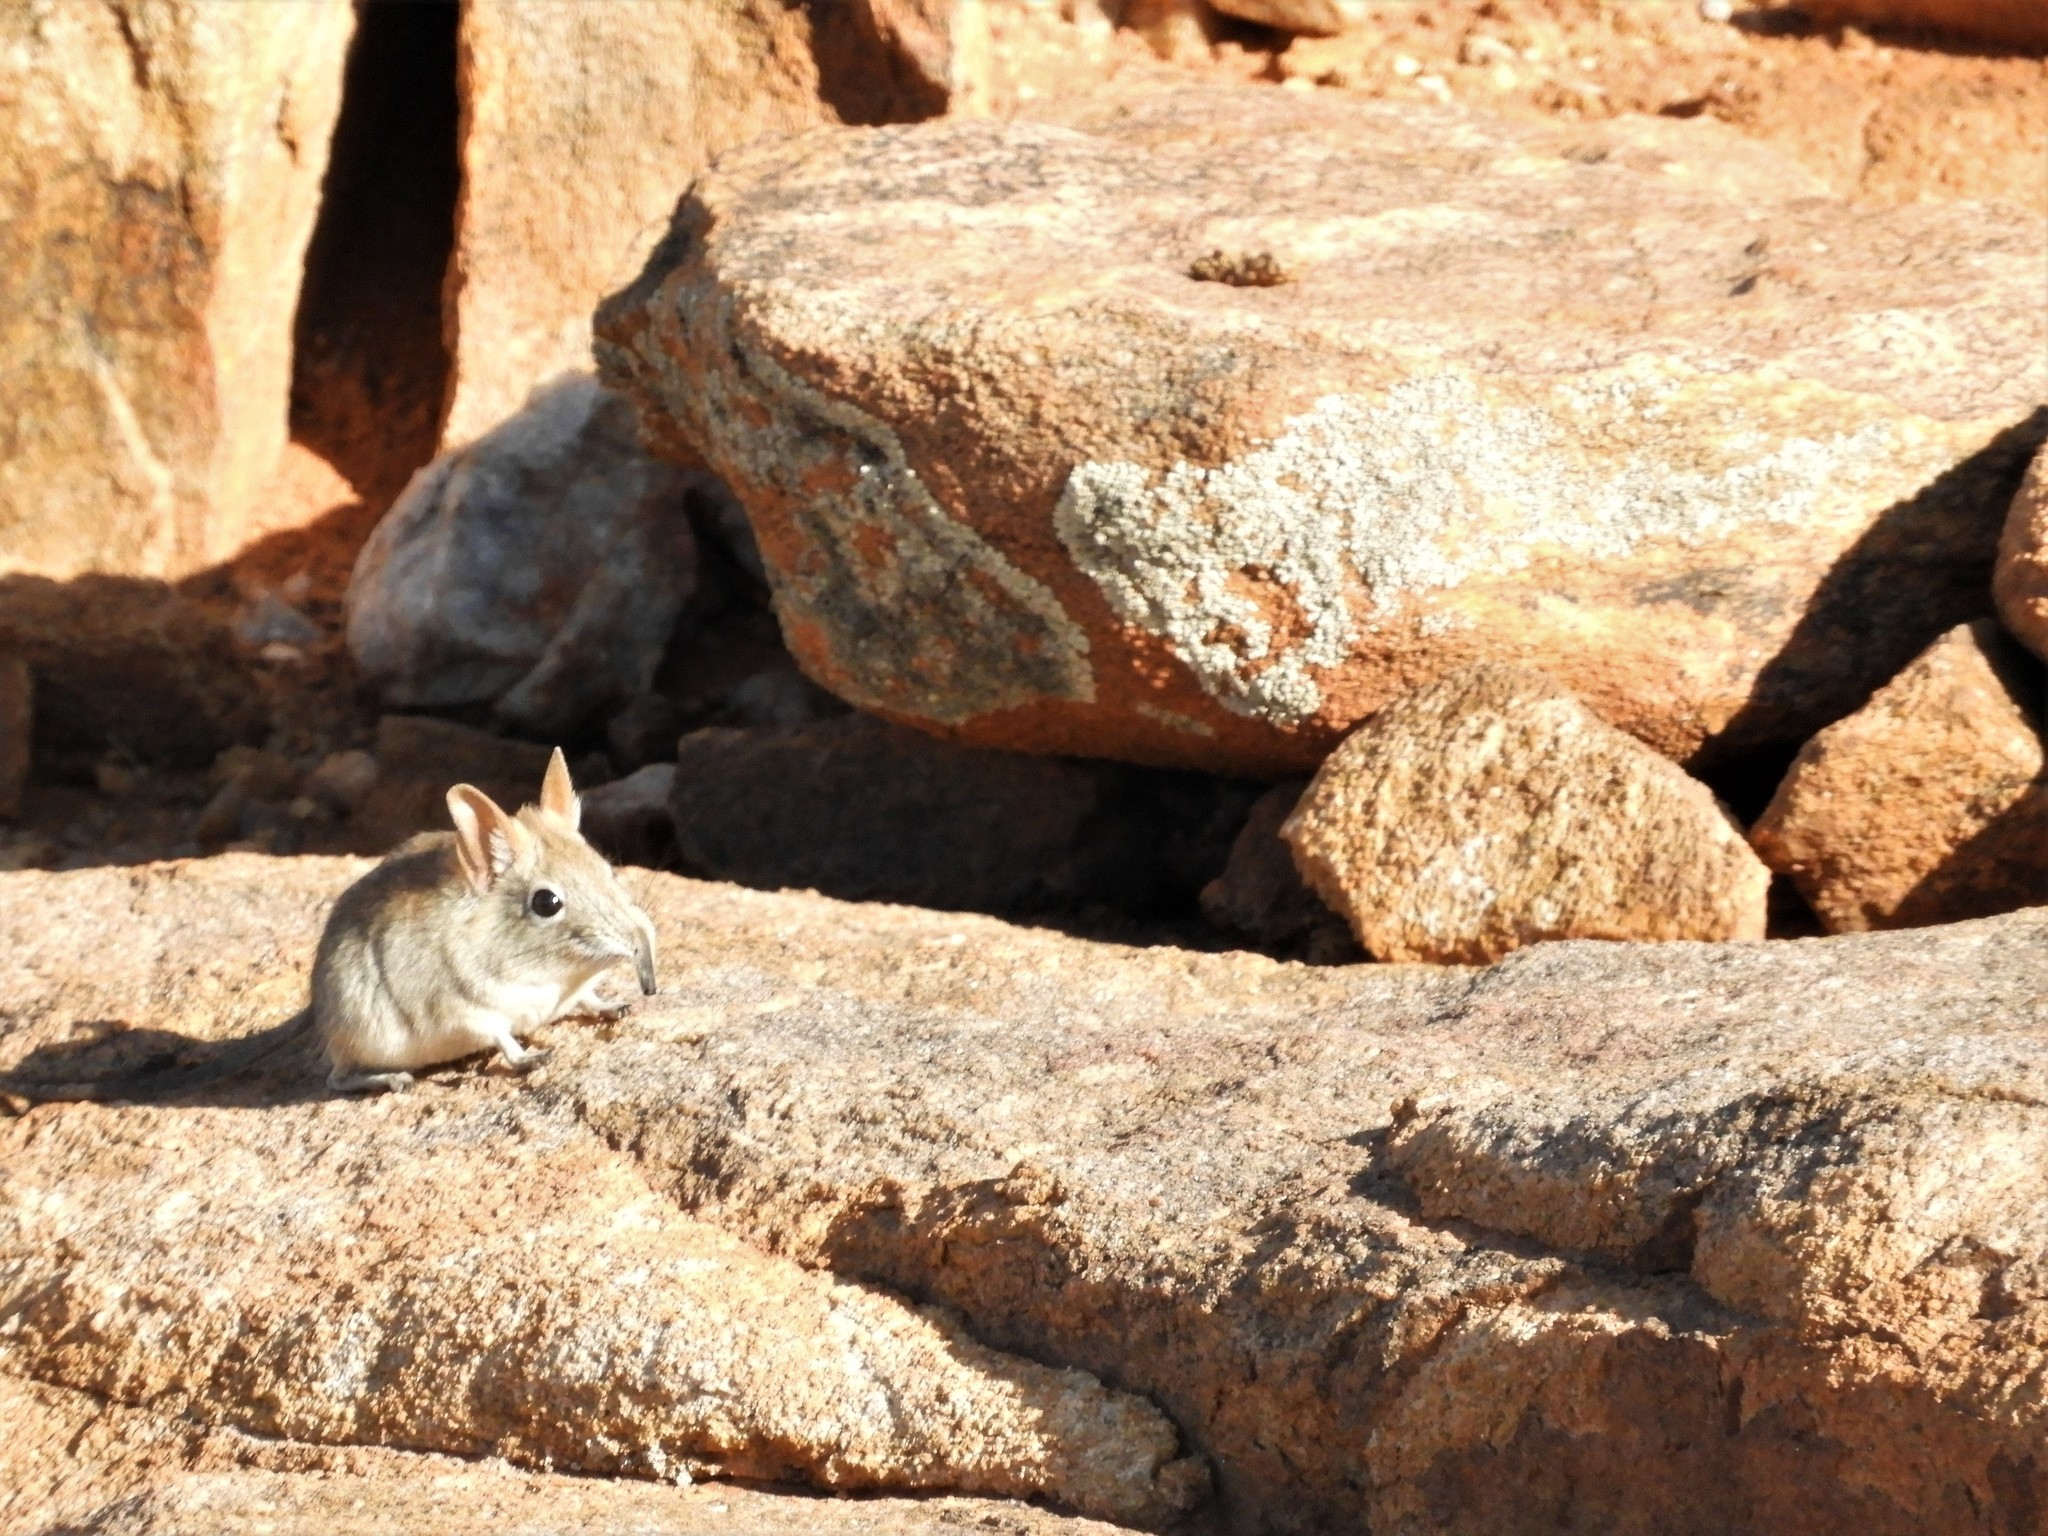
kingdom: Animalia
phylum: Chordata
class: Mammalia
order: Macroscelidea
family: Macroscelididae
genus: Elephantulus
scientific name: Elephantulus rupestris
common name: Western rock elephant shrew
